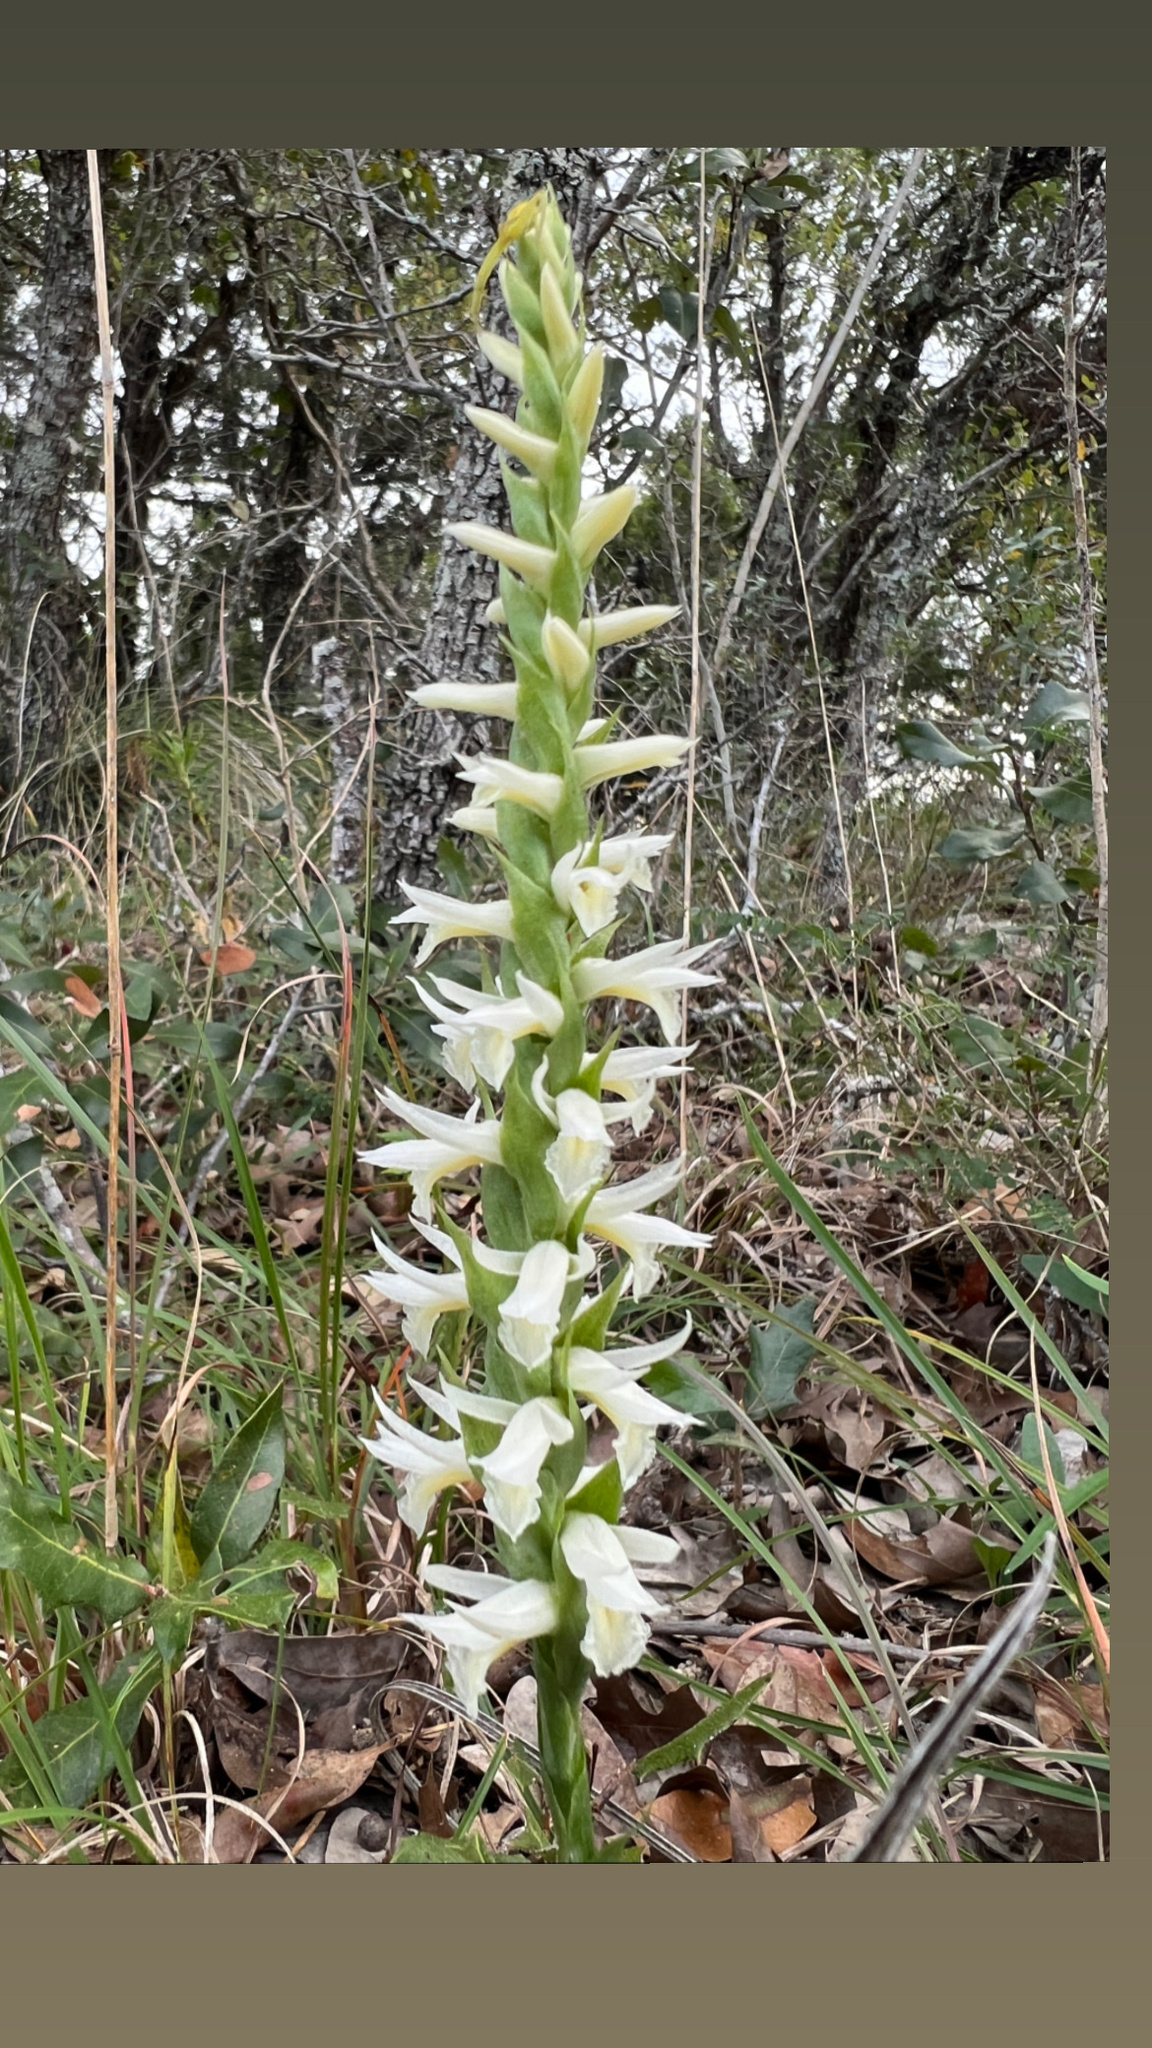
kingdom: Plantae
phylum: Tracheophyta
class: Liliopsida
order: Asparagales
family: Orchidaceae
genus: Spiranthes
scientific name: Spiranthes magnicamporum
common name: Great plains ladies'-tresses
